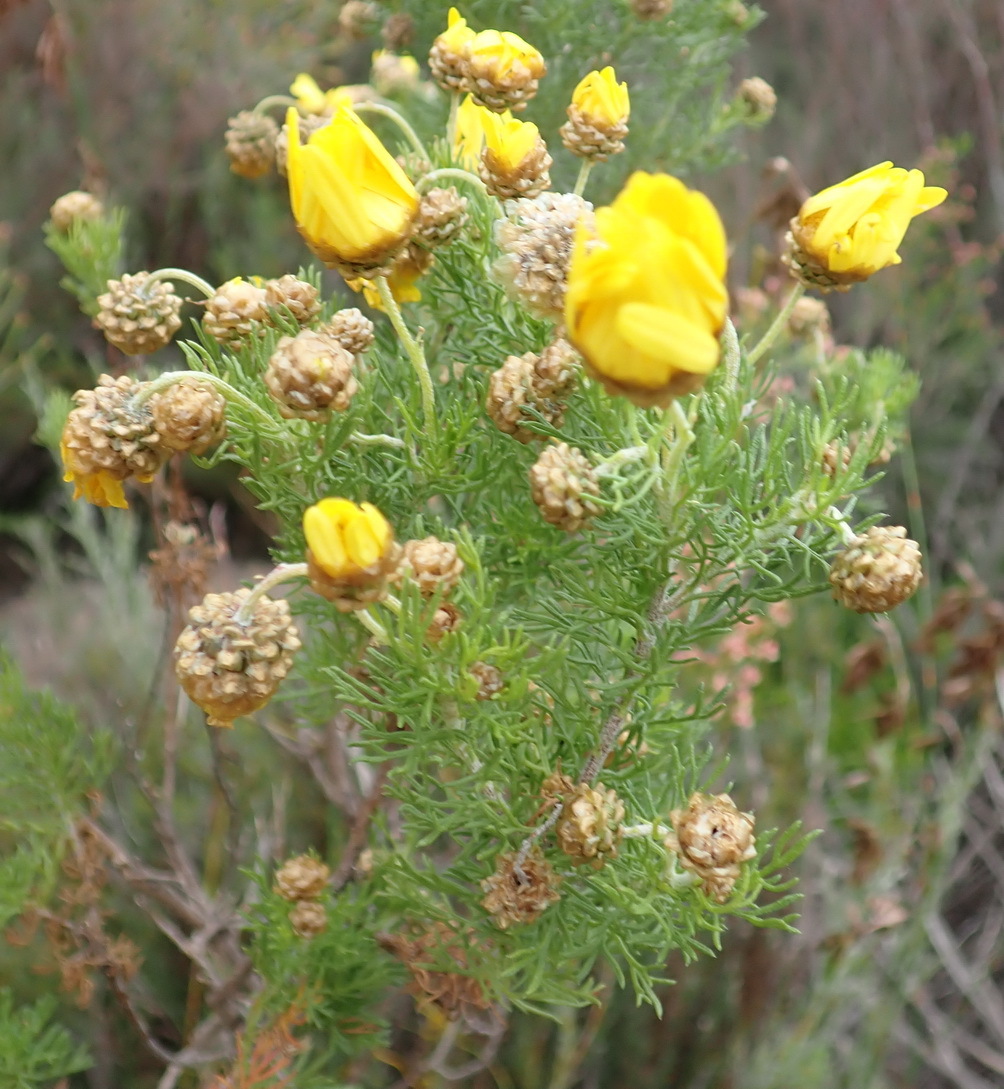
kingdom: Plantae
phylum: Tracheophyta
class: Magnoliopsida
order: Asterales
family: Asteraceae
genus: Ursinia
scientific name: Ursinia scariosa
